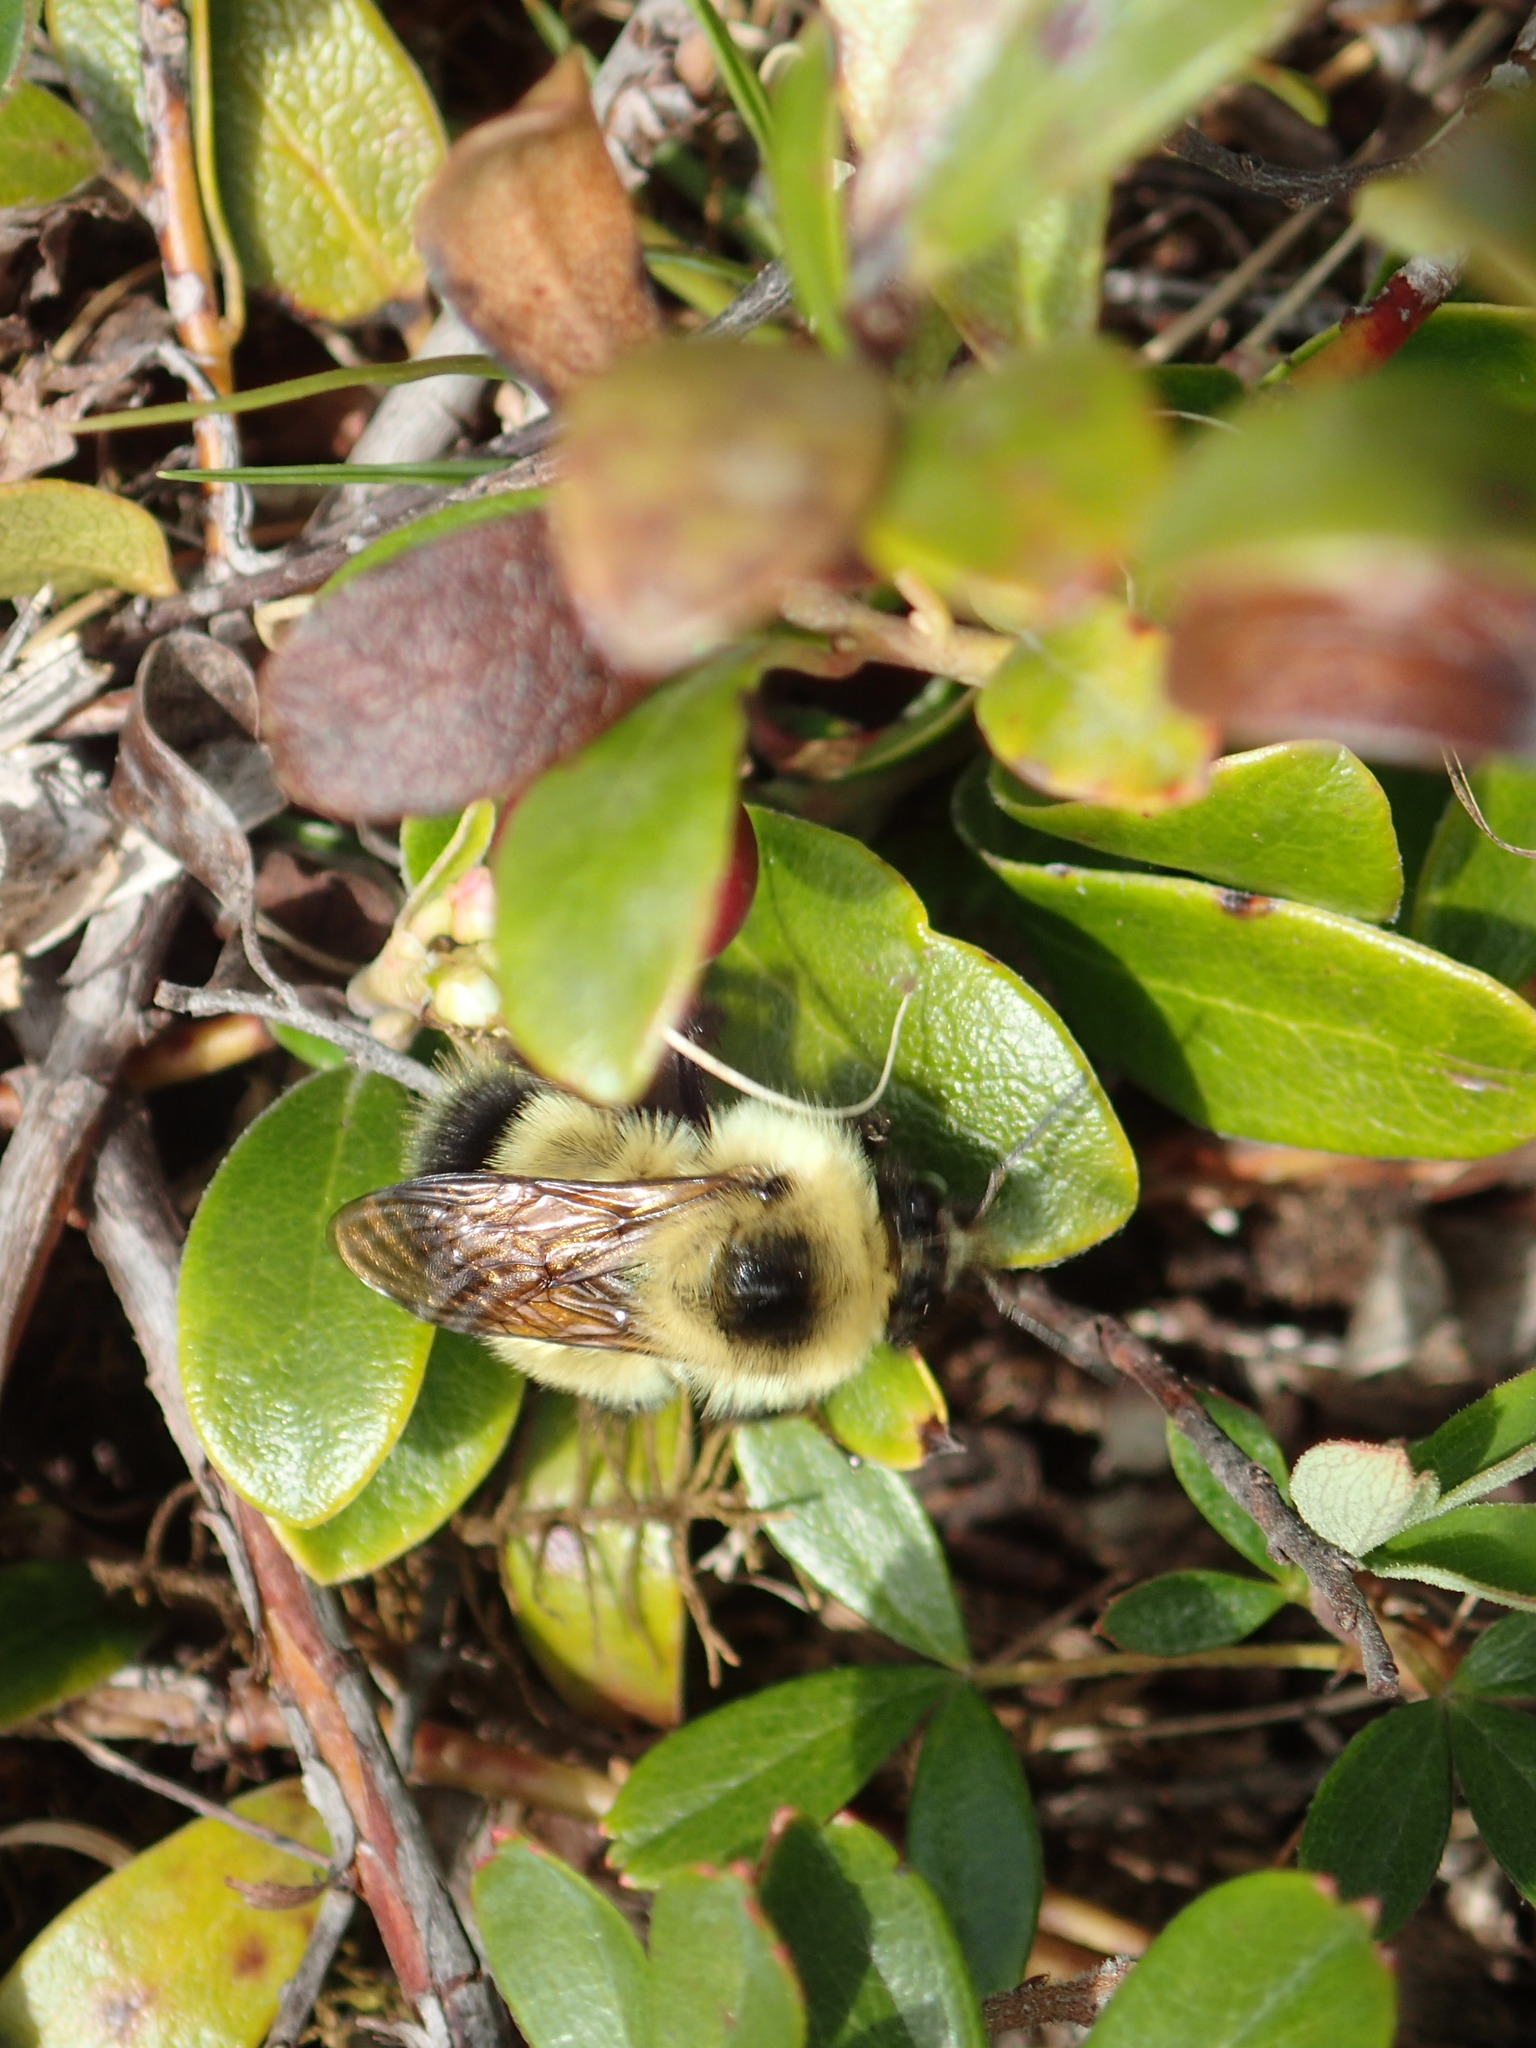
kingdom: Animalia
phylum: Arthropoda
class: Insecta
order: Hymenoptera
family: Apidae
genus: Bombus
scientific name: Bombus rufocinctus
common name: Red-belted bumble bee
